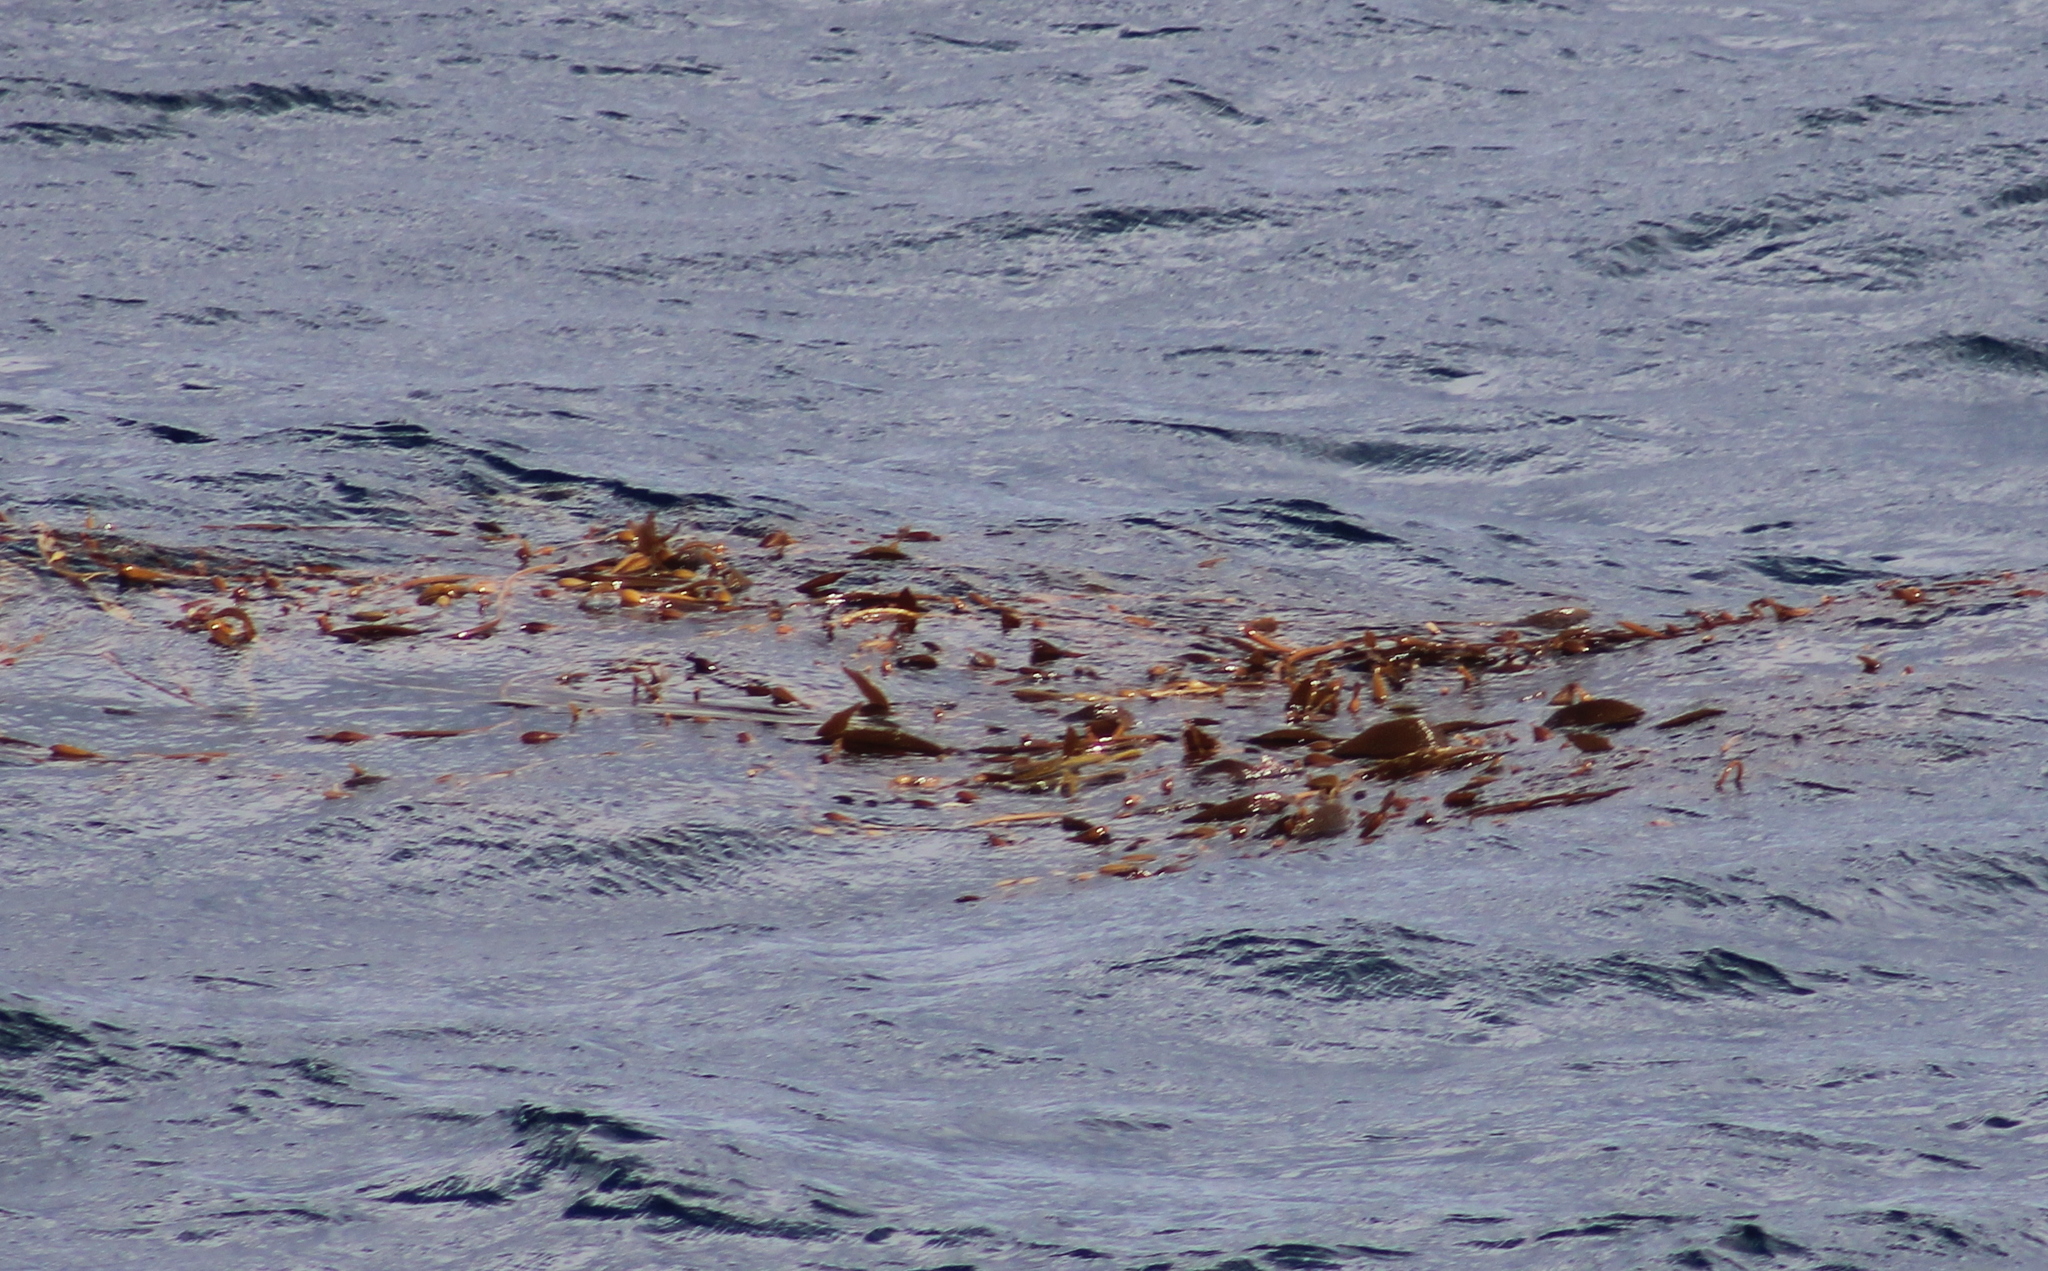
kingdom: Chromista
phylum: Ochrophyta
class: Phaeophyceae
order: Laminariales
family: Laminariaceae
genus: Macrocystis
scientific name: Macrocystis pyrifera
